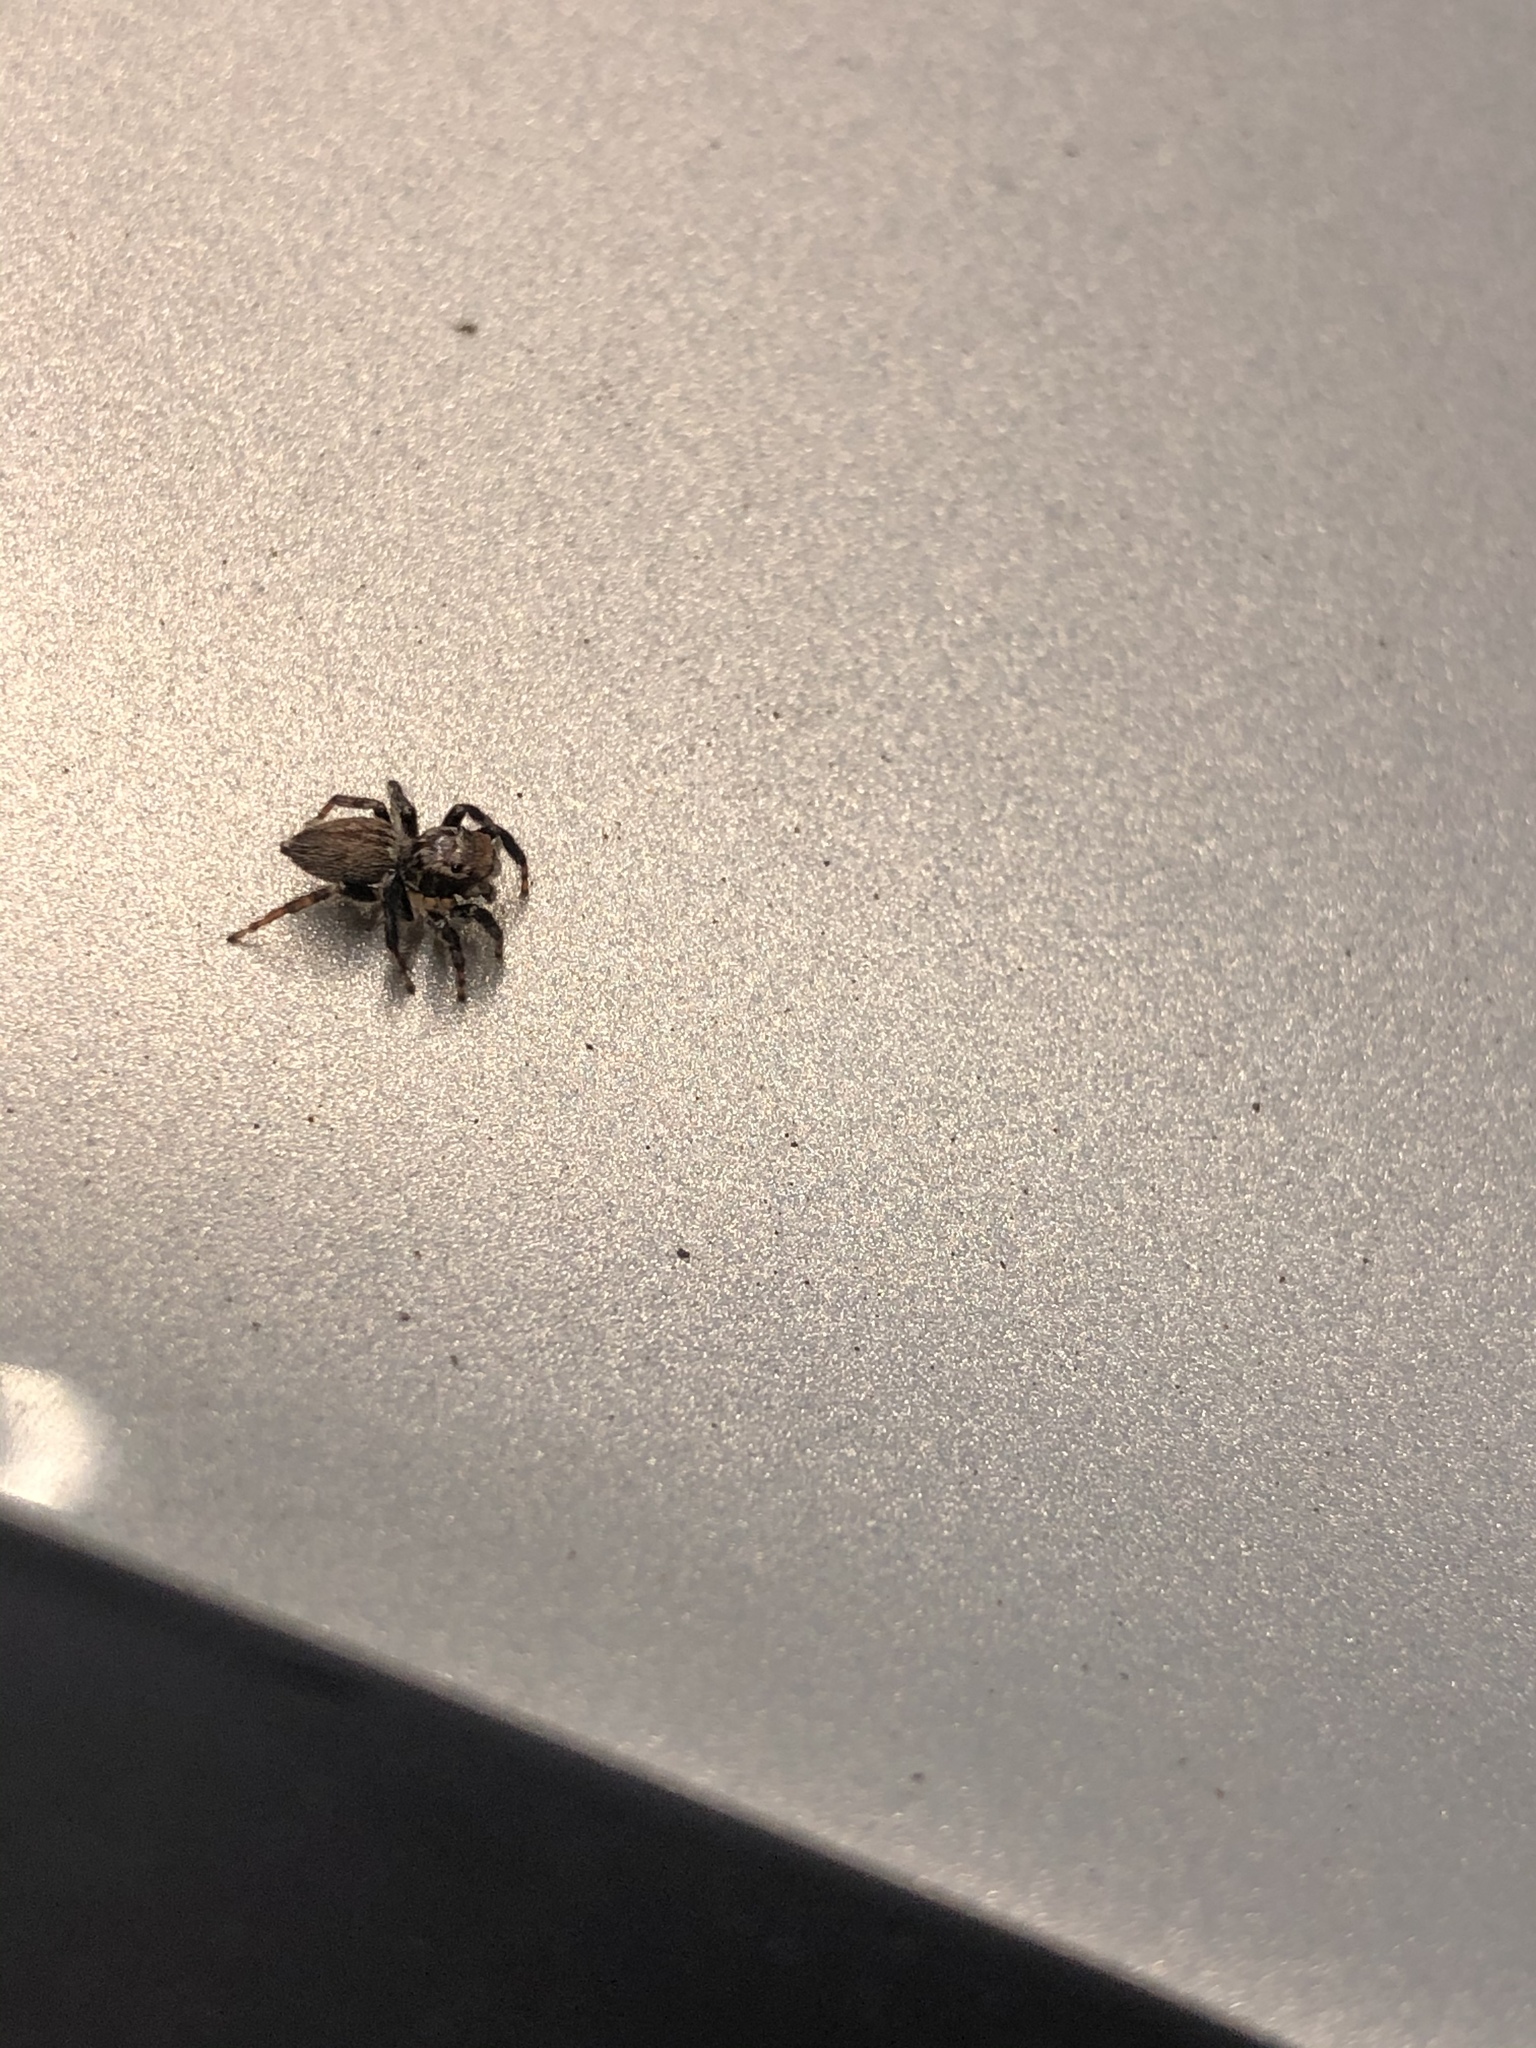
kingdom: Animalia
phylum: Arthropoda
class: Arachnida
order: Araneae
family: Salticidae
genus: Maratus
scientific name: Maratus griseus
